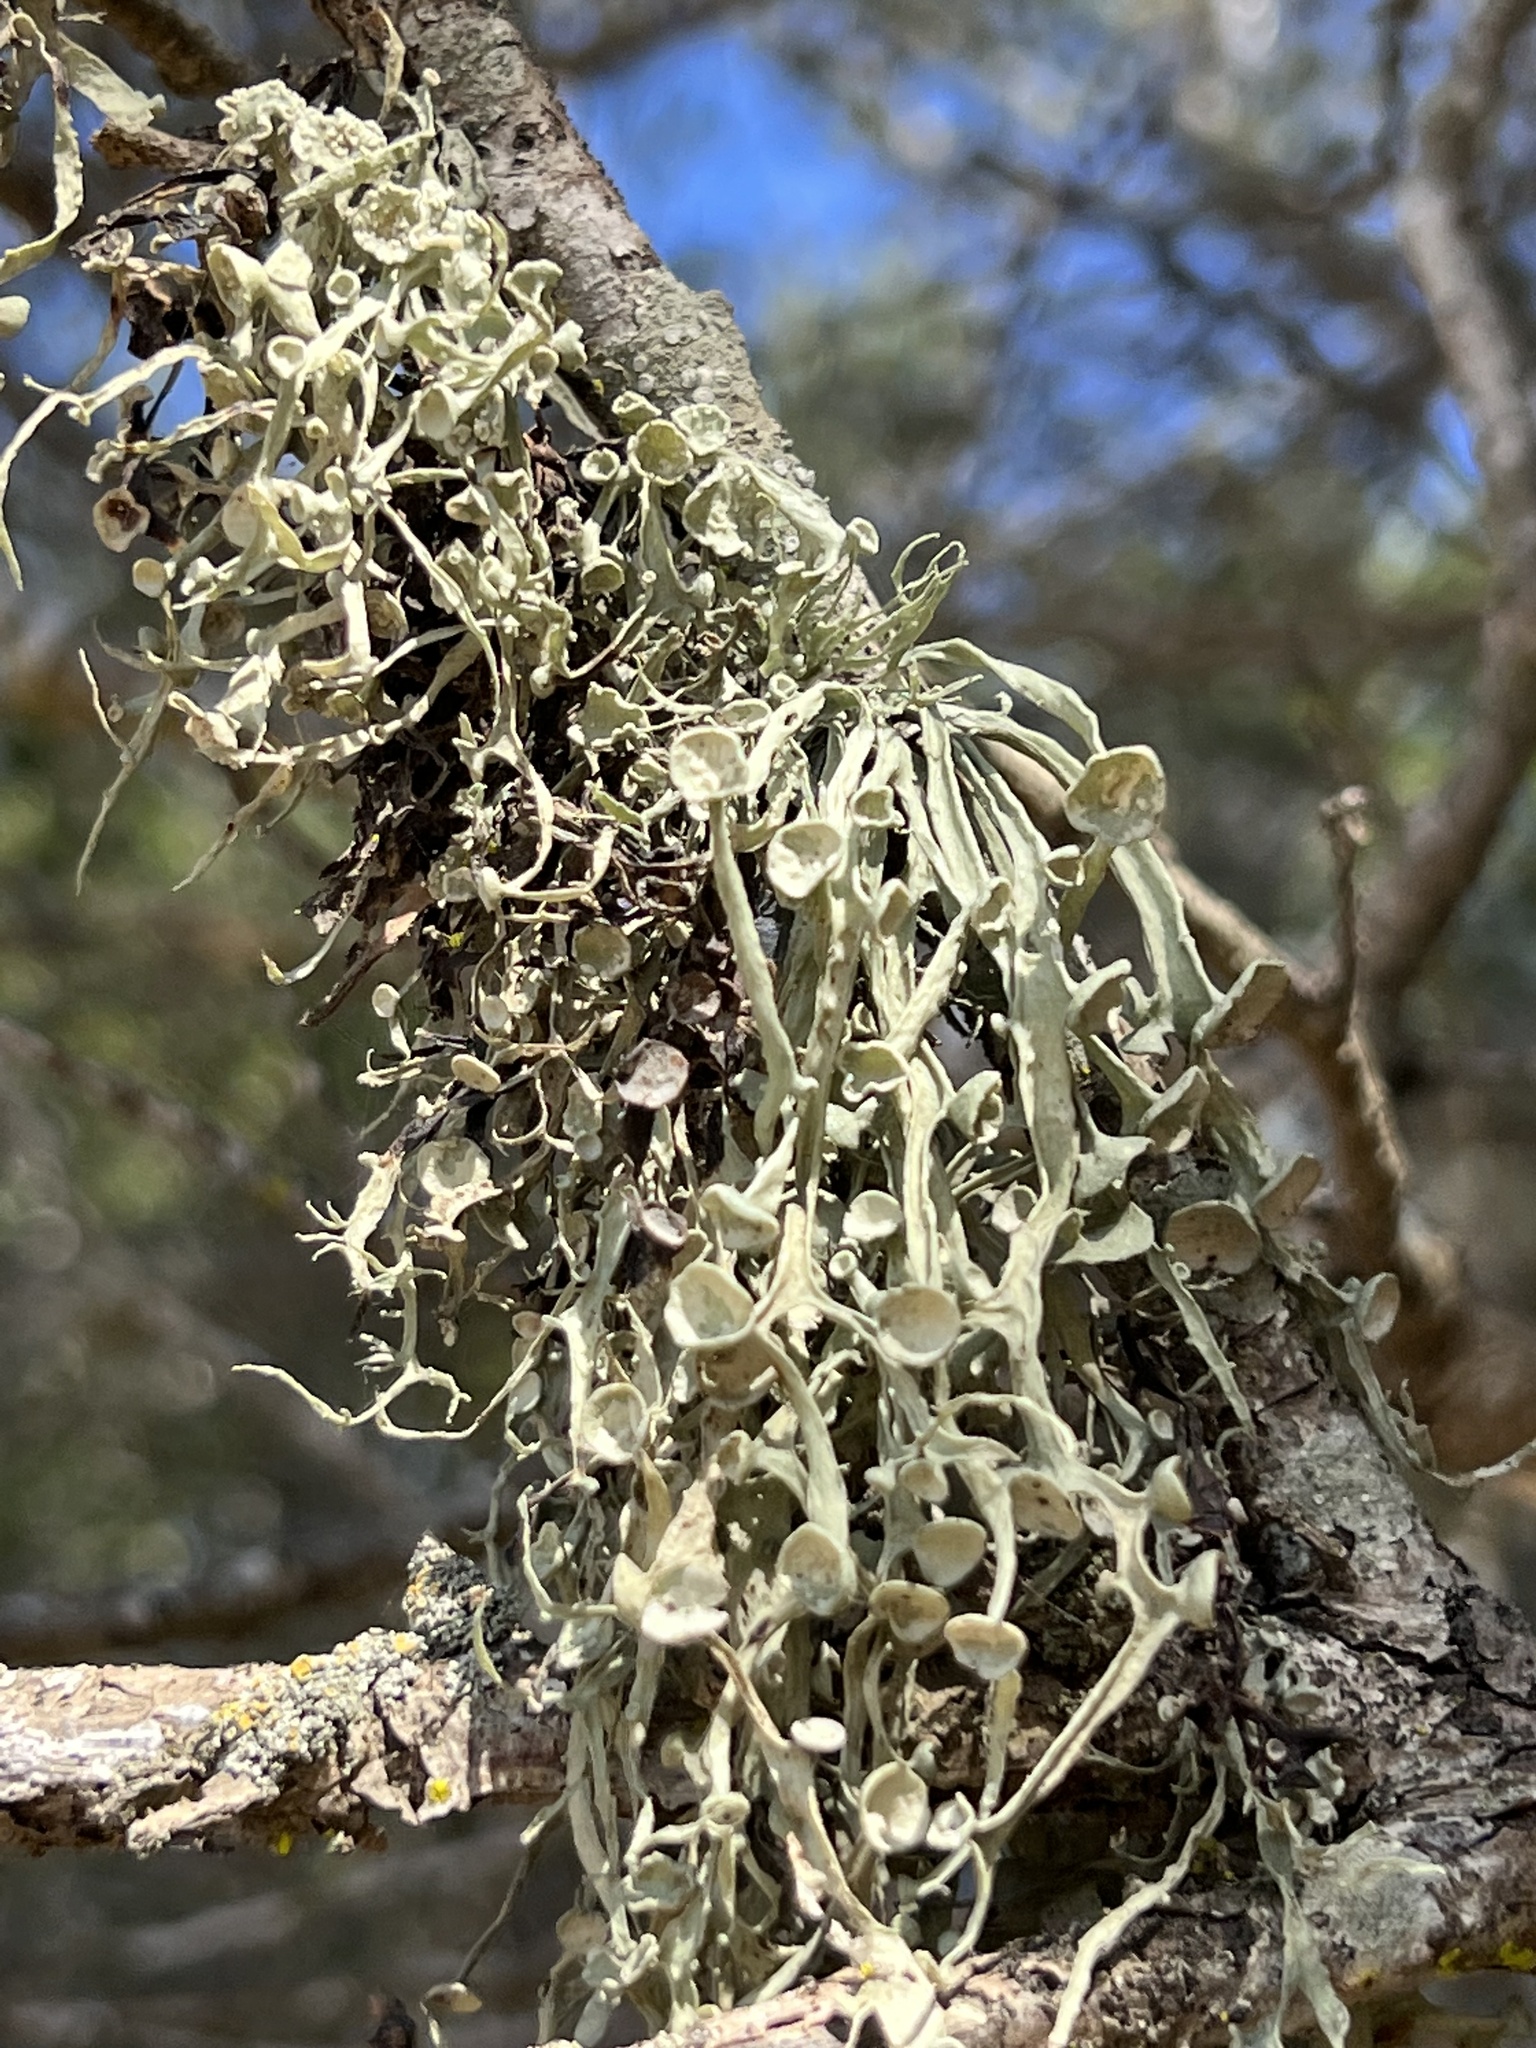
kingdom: Fungi
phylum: Ascomycota
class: Lecanoromycetes
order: Lecanorales
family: Ramalinaceae
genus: Ramalina
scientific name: Ramalina leptocarpha
